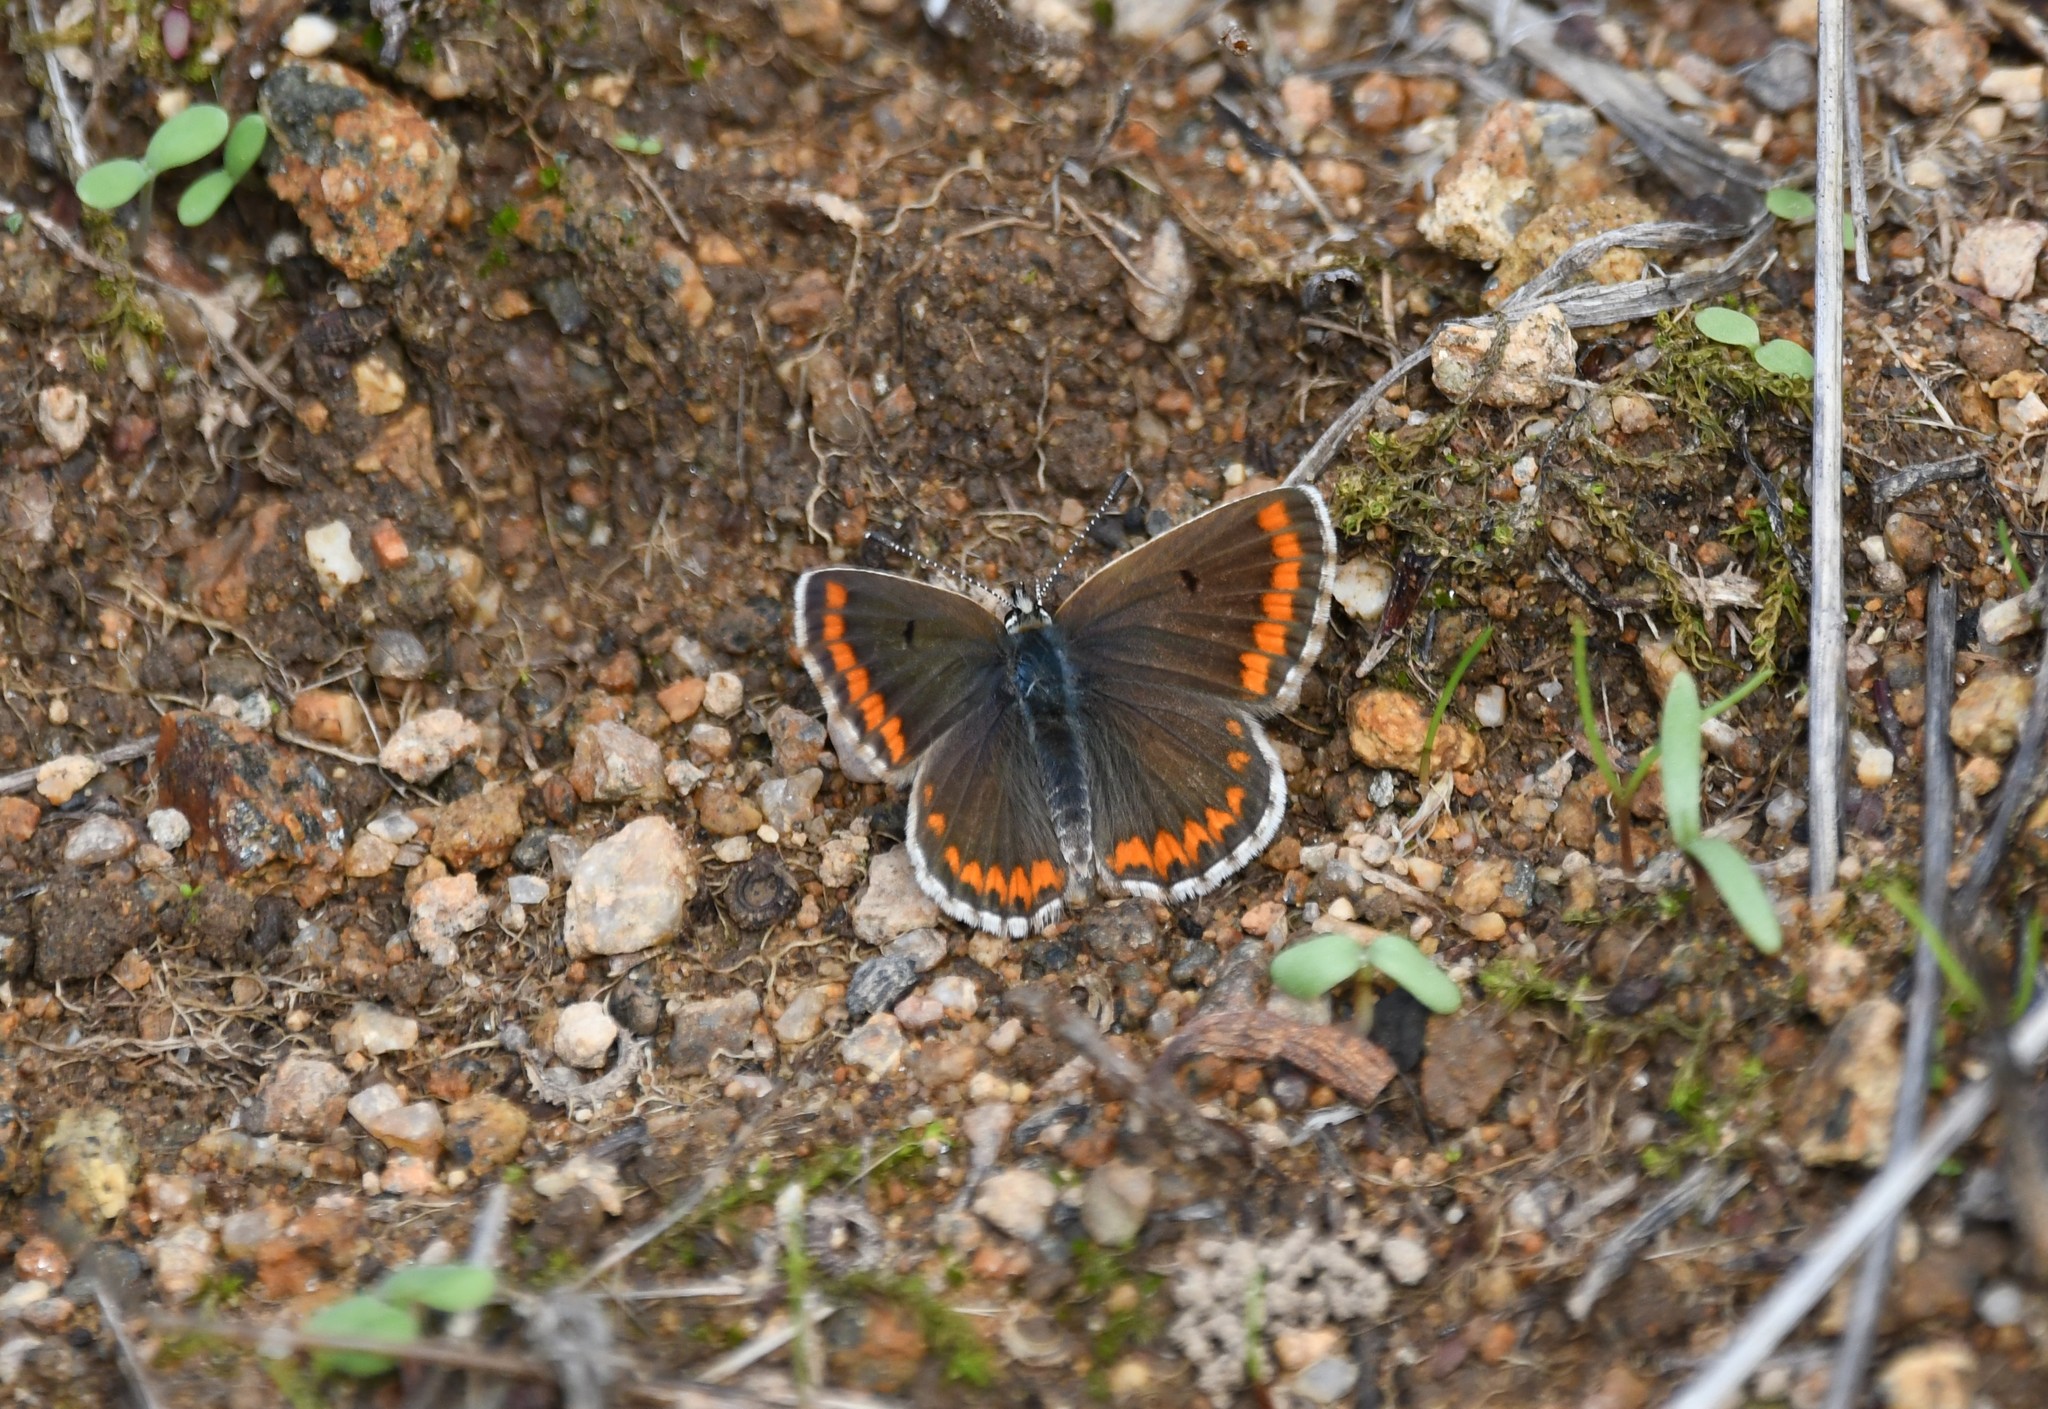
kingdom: Animalia
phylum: Arthropoda
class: Insecta
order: Lepidoptera
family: Lycaenidae
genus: Aricia
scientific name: Aricia cramera
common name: Eschscholtz´s brown  argus
